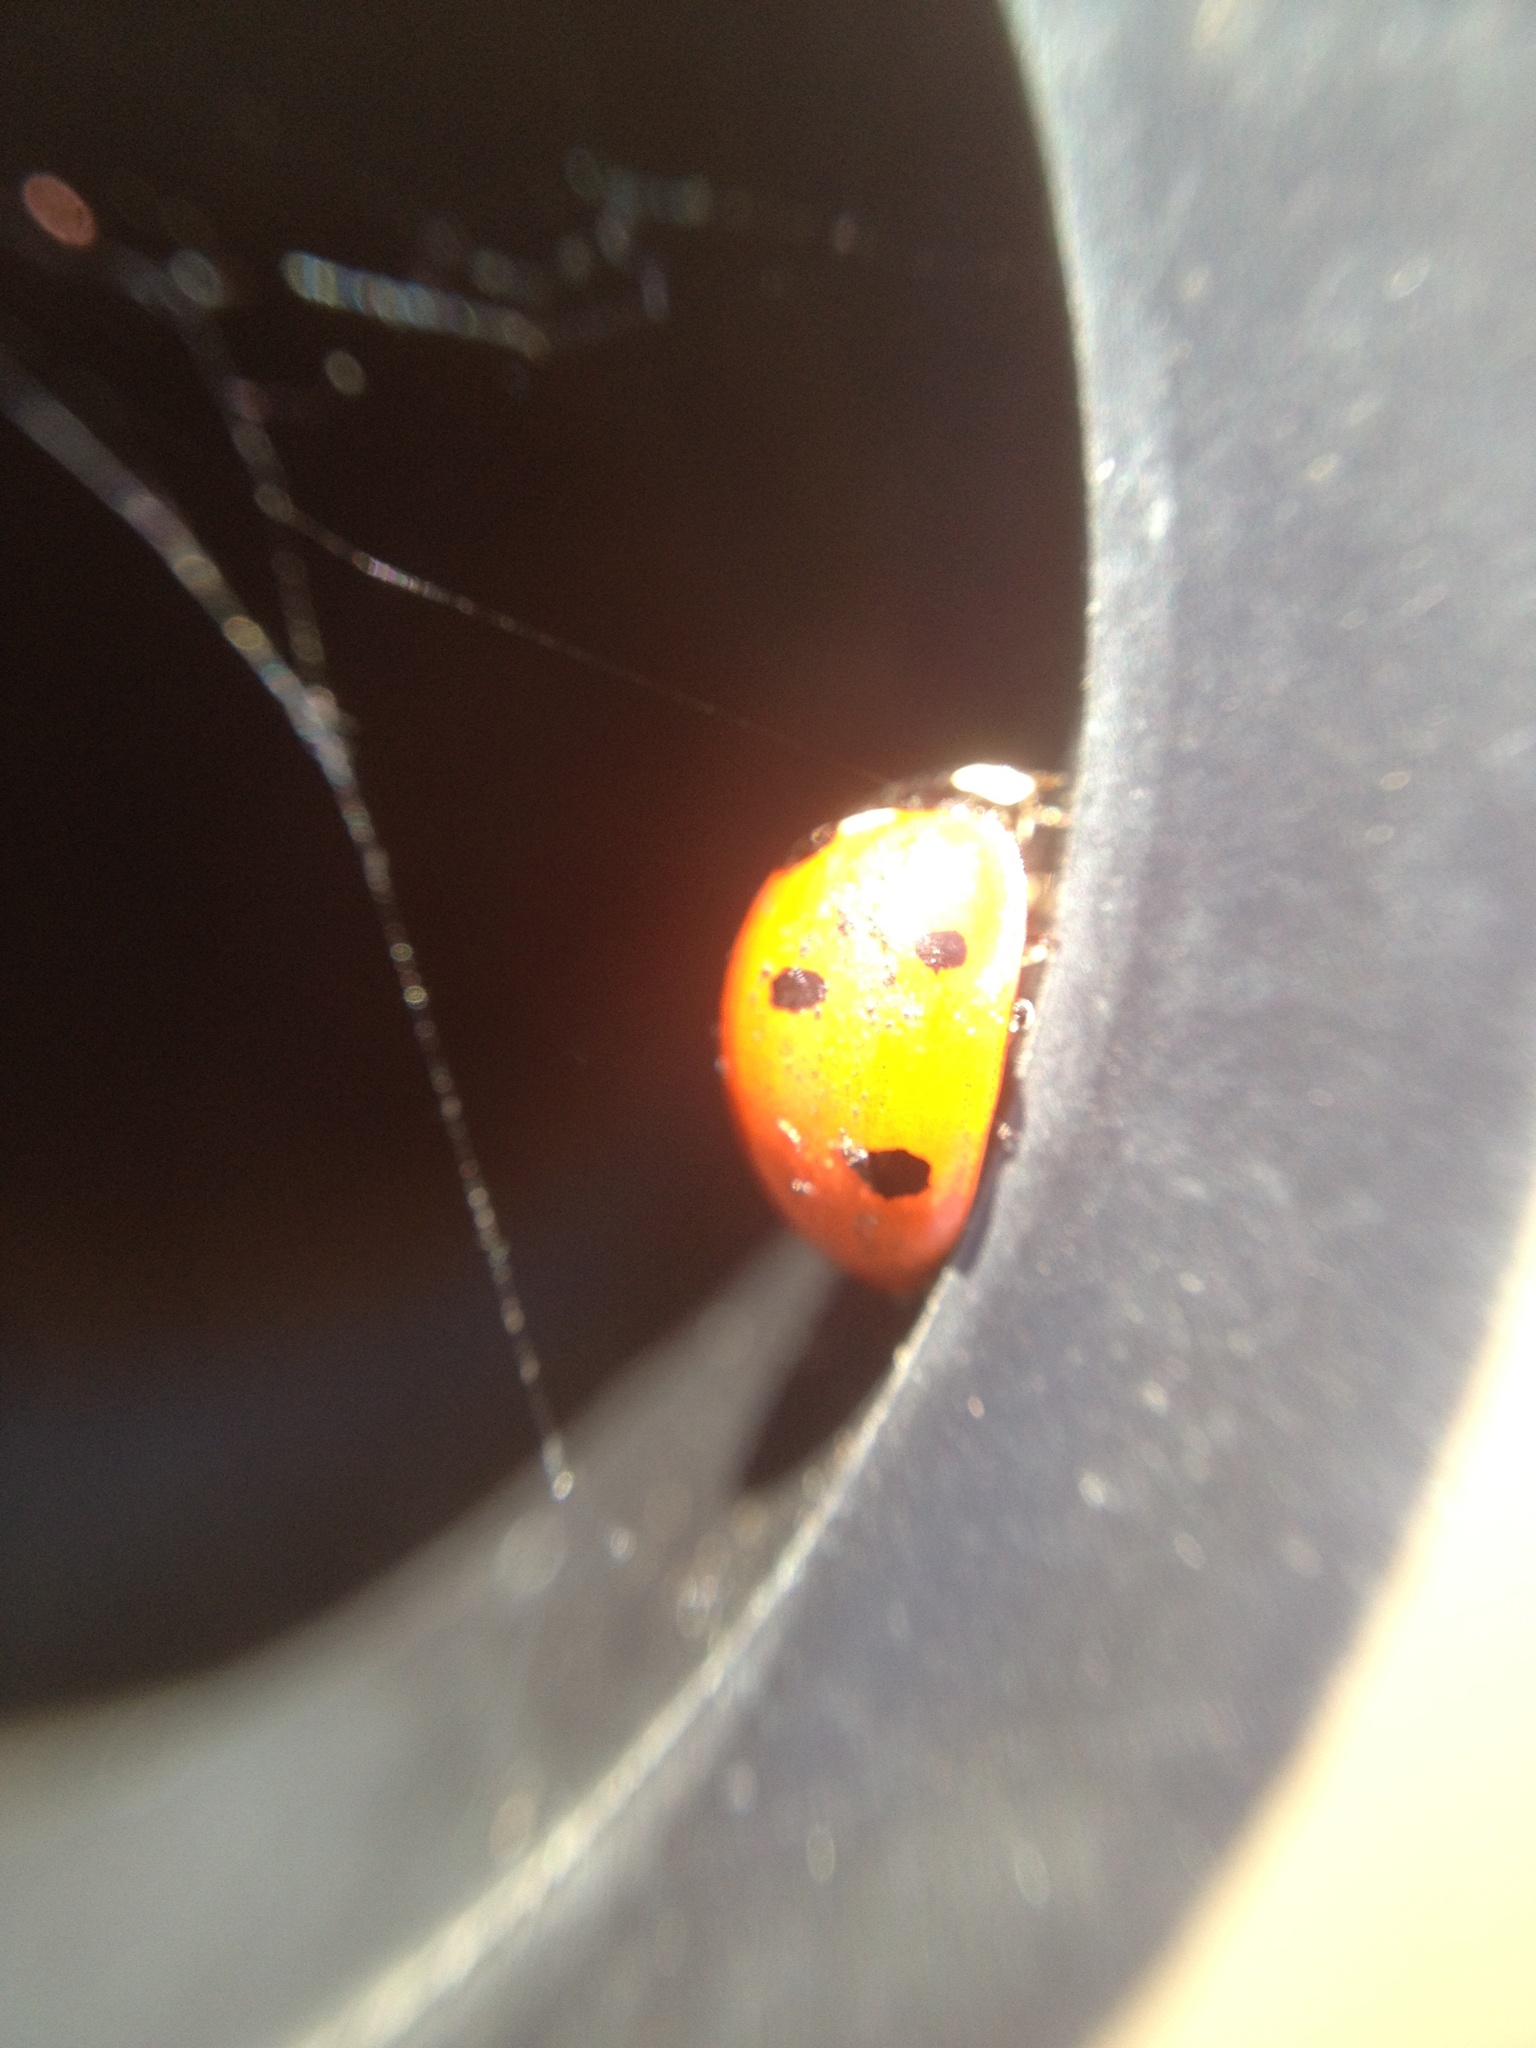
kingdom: Animalia
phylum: Arthropoda
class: Insecta
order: Coleoptera
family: Coccinellidae
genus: Coccinella
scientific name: Coccinella septempunctata
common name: Sevenspotted lady beetle
